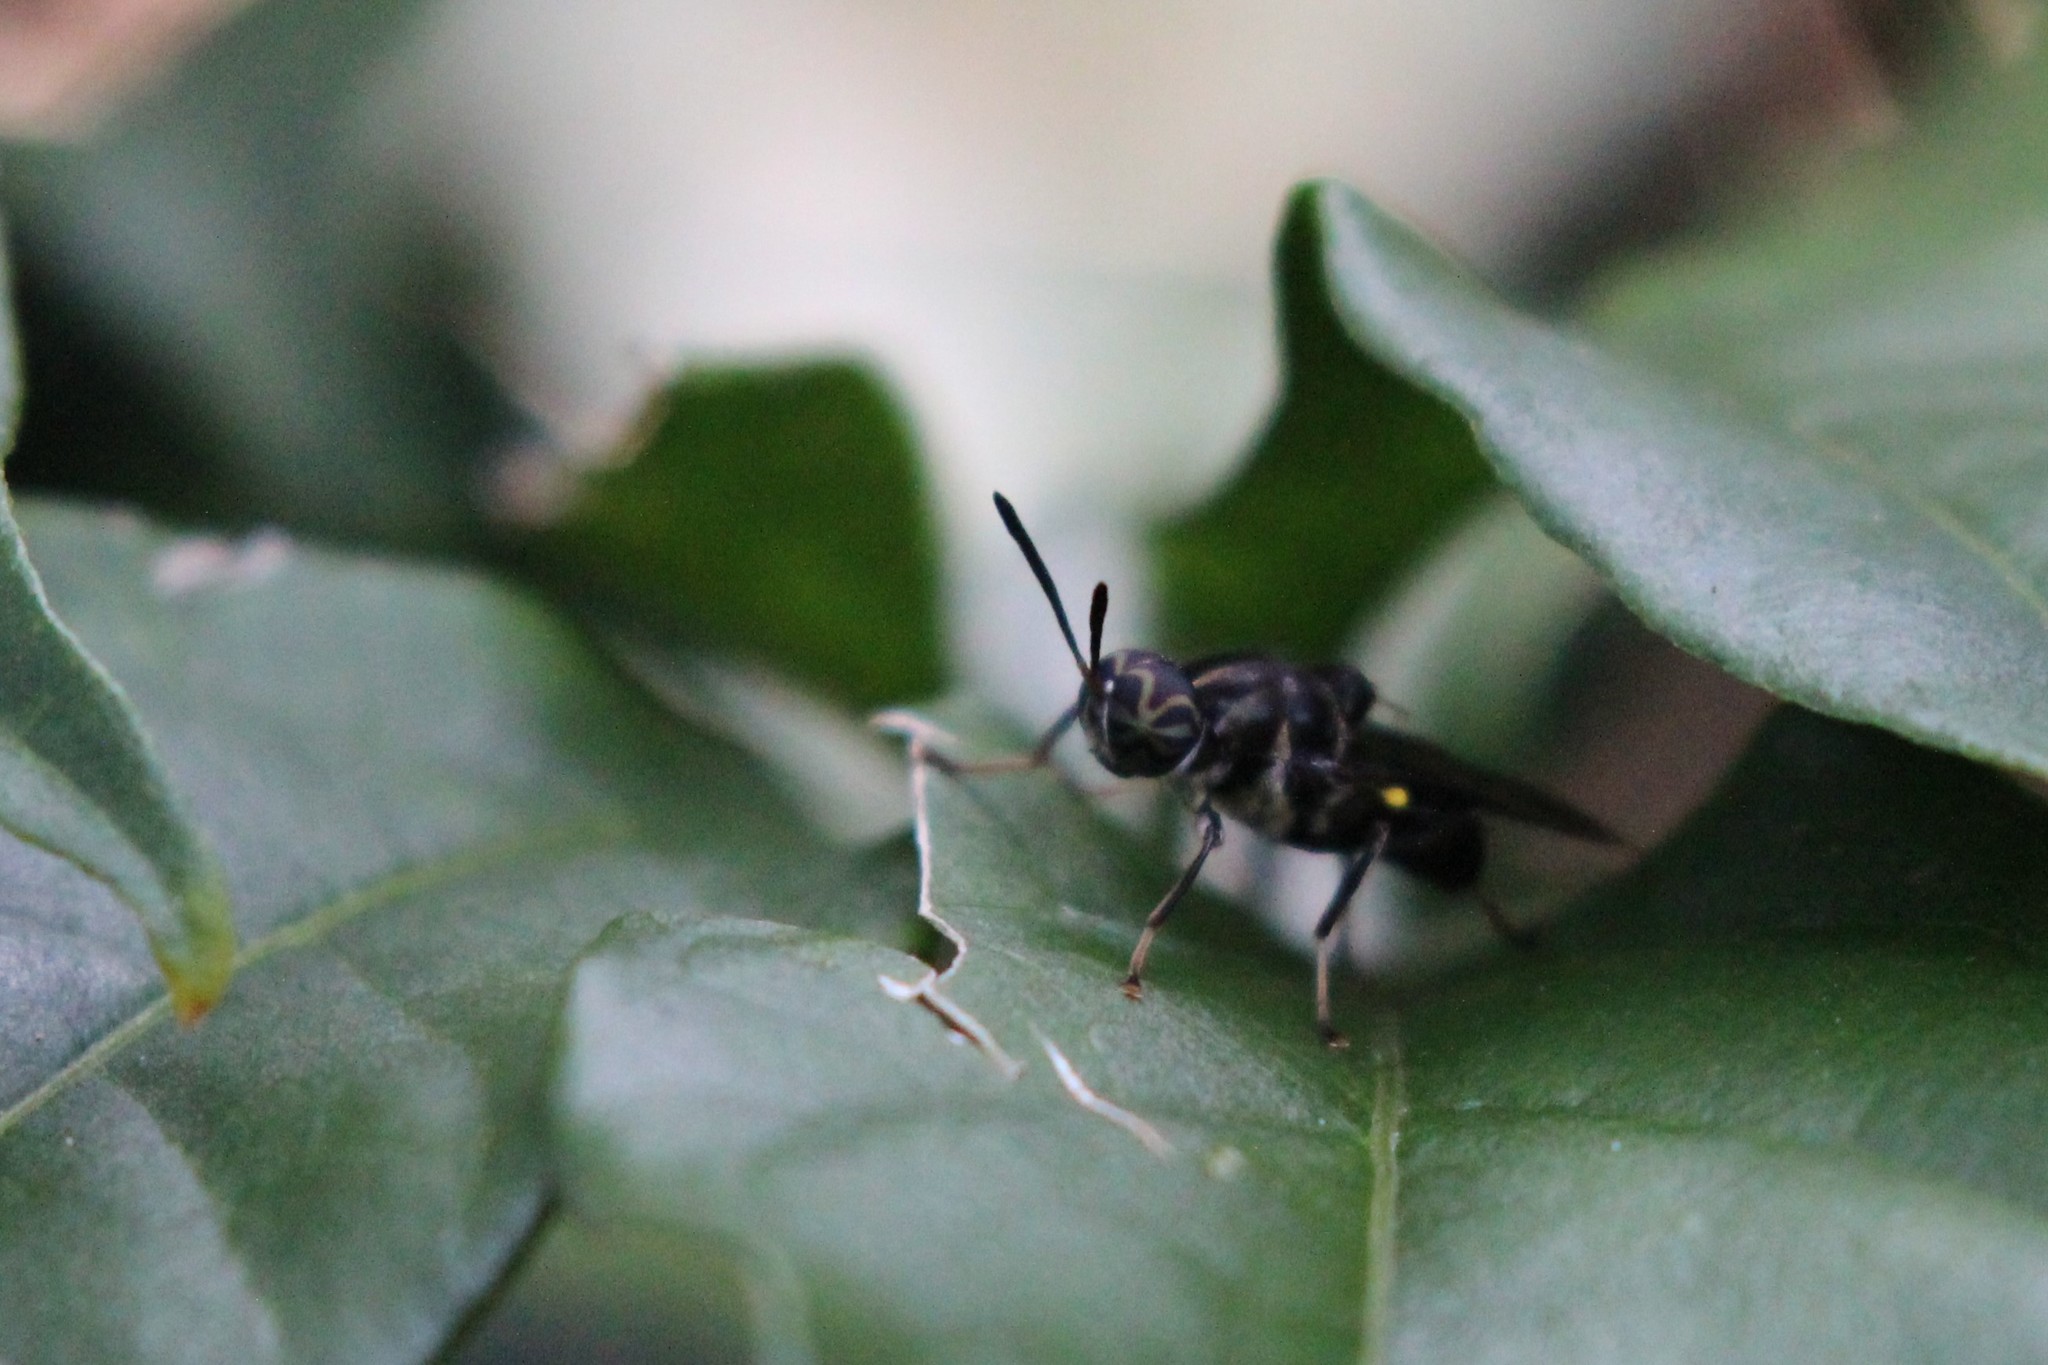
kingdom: Animalia
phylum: Arthropoda
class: Insecta
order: Diptera
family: Stratiomyidae
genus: Cyphomyia
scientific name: Cyphomyia albitarsis
